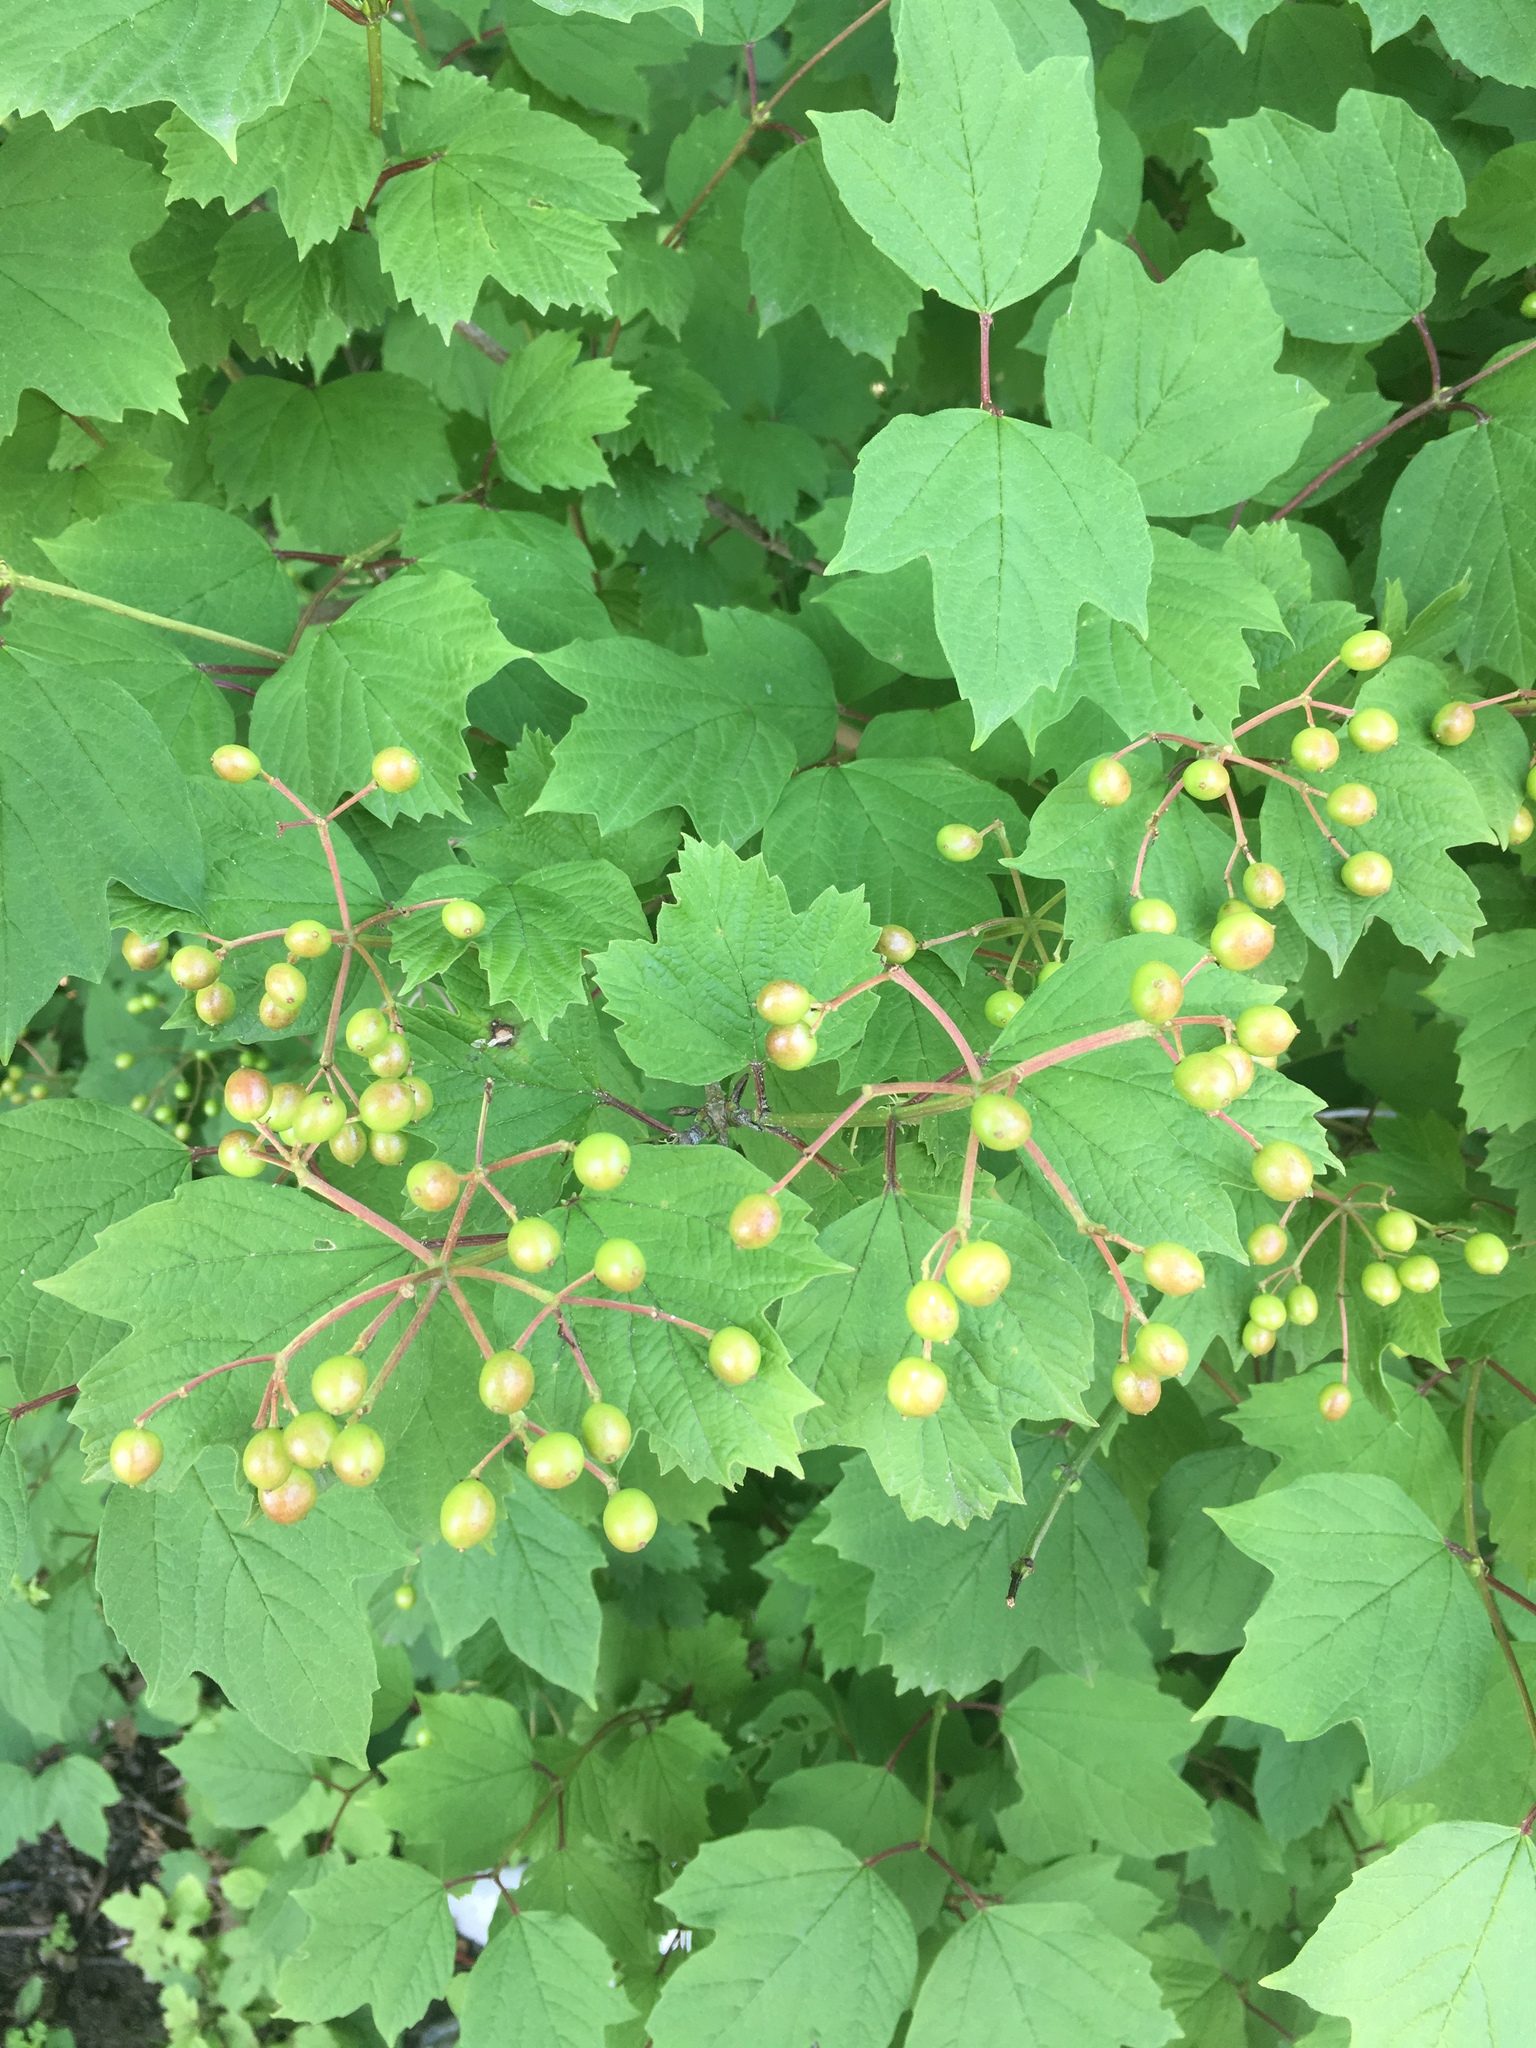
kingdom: Plantae
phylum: Tracheophyta
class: Magnoliopsida
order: Dipsacales
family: Viburnaceae
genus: Viburnum
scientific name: Viburnum opulus
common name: Guelder-rose
